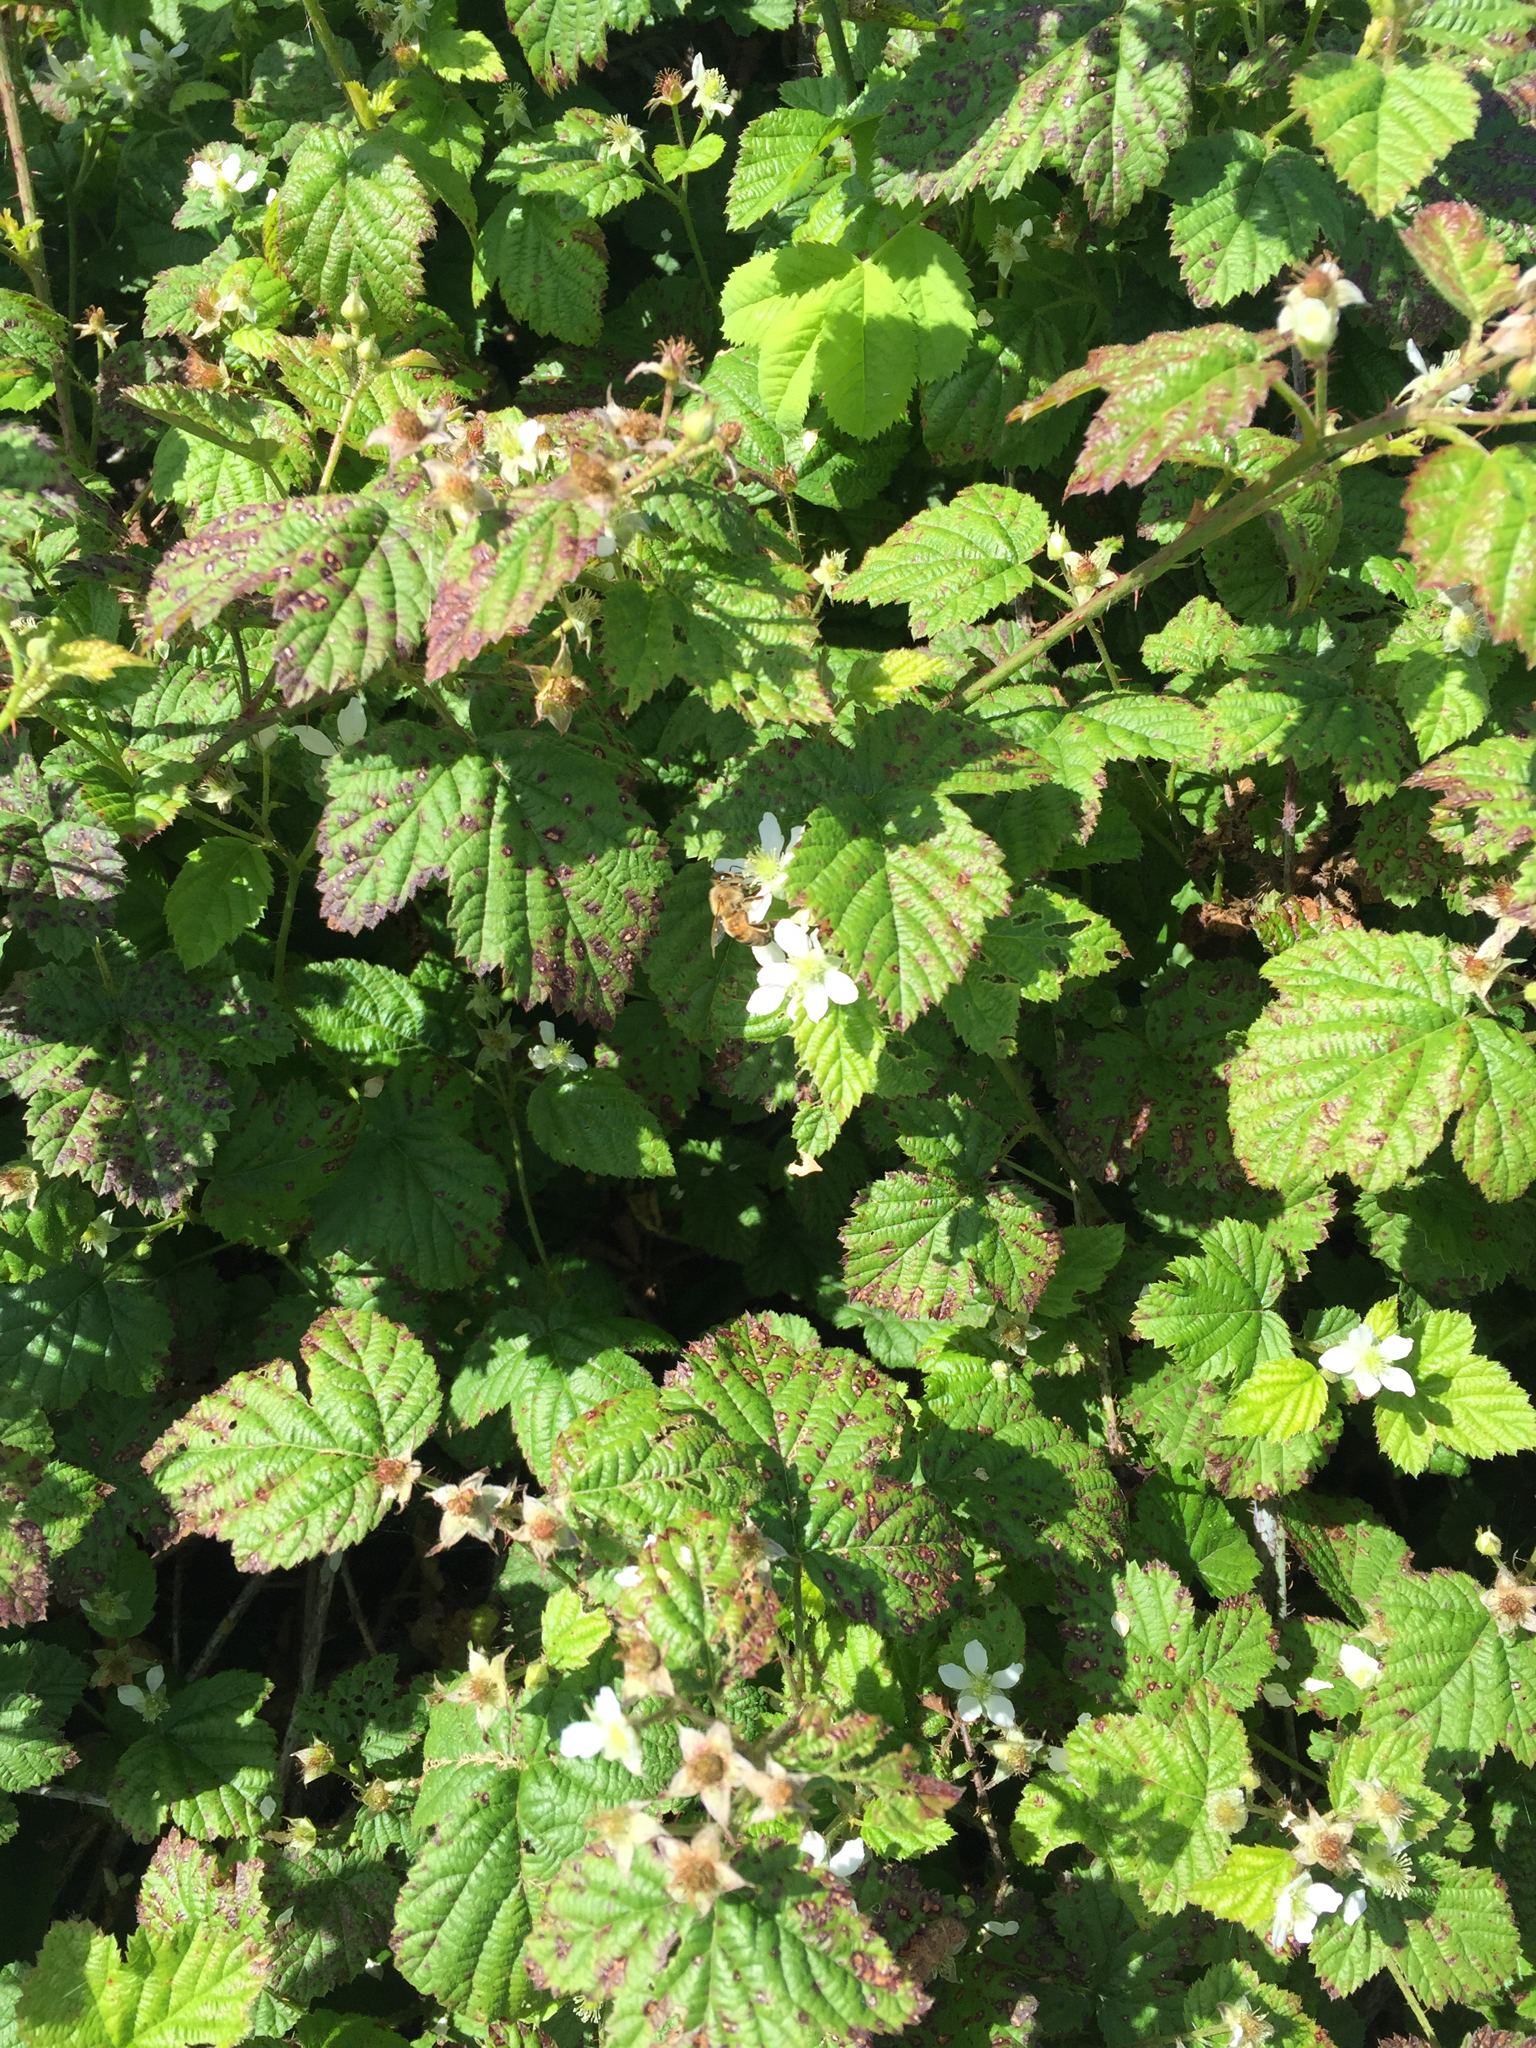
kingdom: Animalia
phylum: Arthropoda
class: Insecta
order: Hymenoptera
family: Apidae
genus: Apis
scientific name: Apis mellifera
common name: Honey bee
